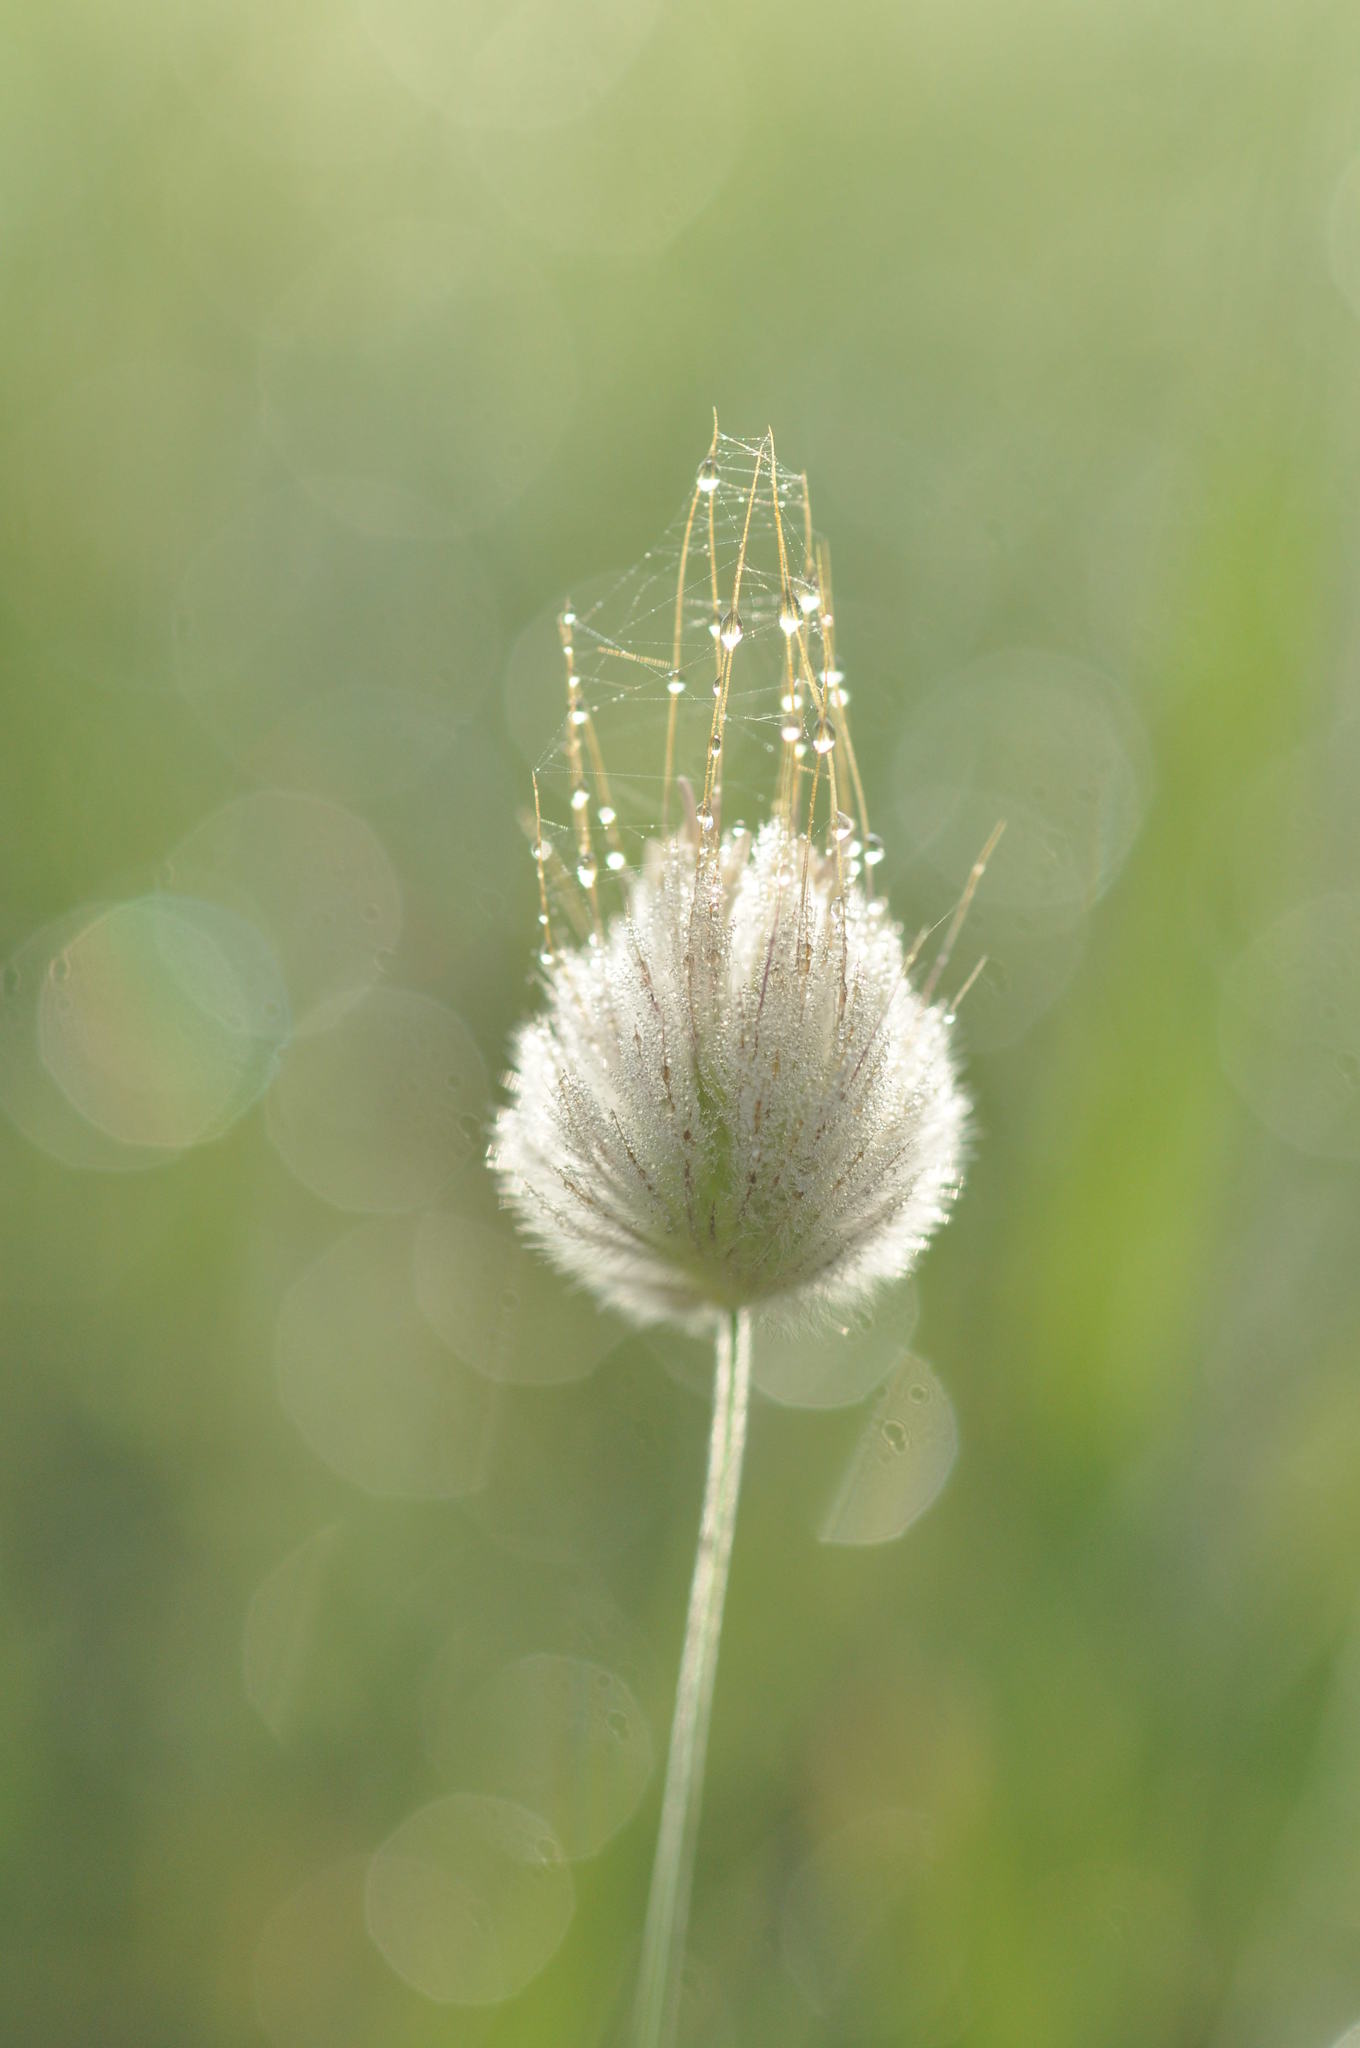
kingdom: Plantae
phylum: Tracheophyta
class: Liliopsida
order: Poales
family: Poaceae
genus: Lagurus
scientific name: Lagurus ovatus
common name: Hare's-tail
